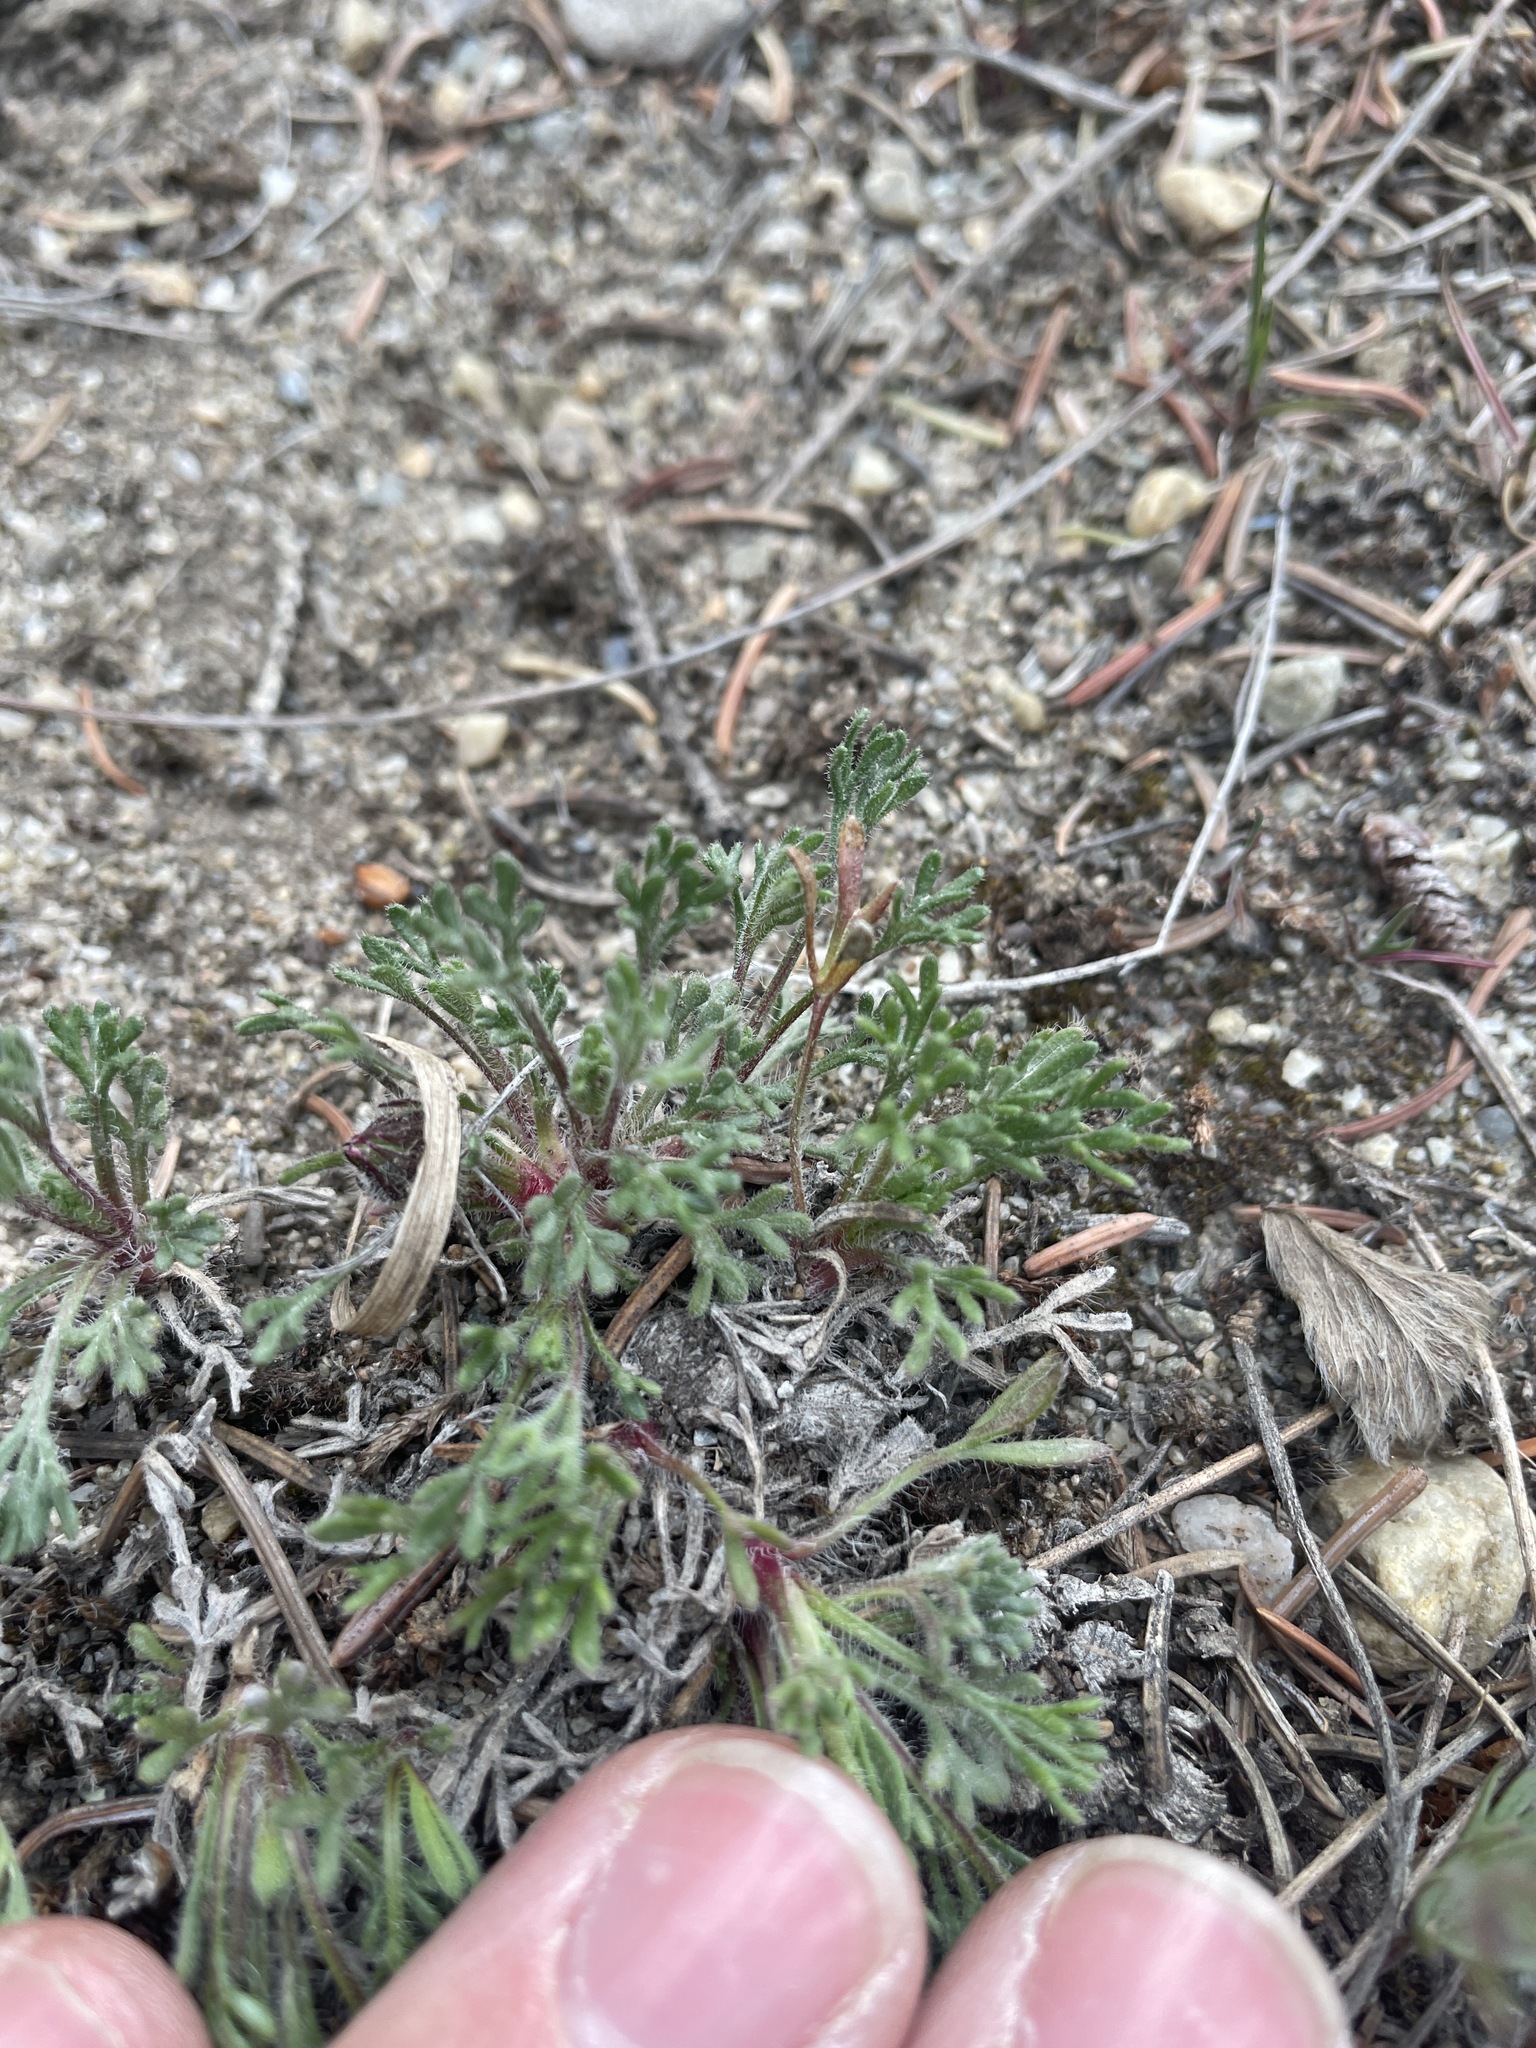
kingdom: Plantae
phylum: Tracheophyta
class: Magnoliopsida
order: Asterales
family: Asteraceae
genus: Erigeron
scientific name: Erigeron compositus
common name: Dwarf mountain fleabane
